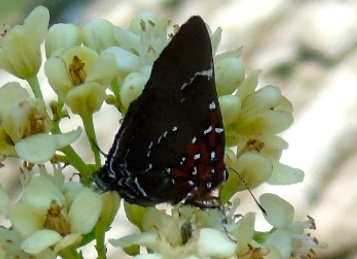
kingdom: Animalia
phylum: Arthropoda
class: Insecta
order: Lepidoptera
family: Lycaenidae
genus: Atlides
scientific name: Atlides Brangas neora
